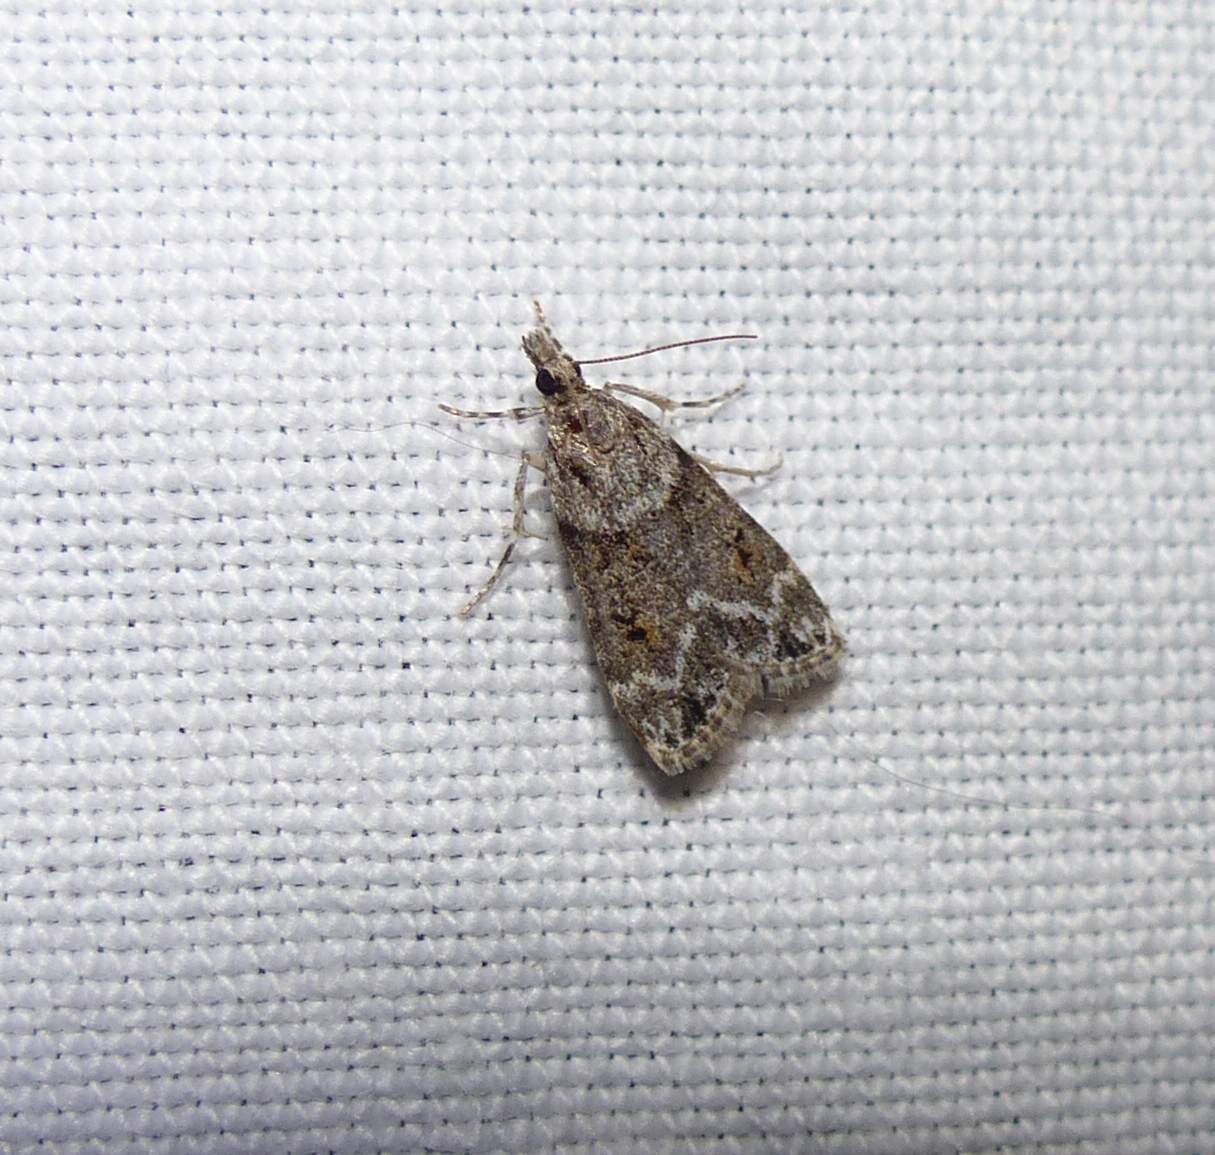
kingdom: Animalia
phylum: Arthropoda
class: Insecta
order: Lepidoptera
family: Crambidae
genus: Scoparia
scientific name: Scoparia biplagialis
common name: Double-striped scoparia moth
